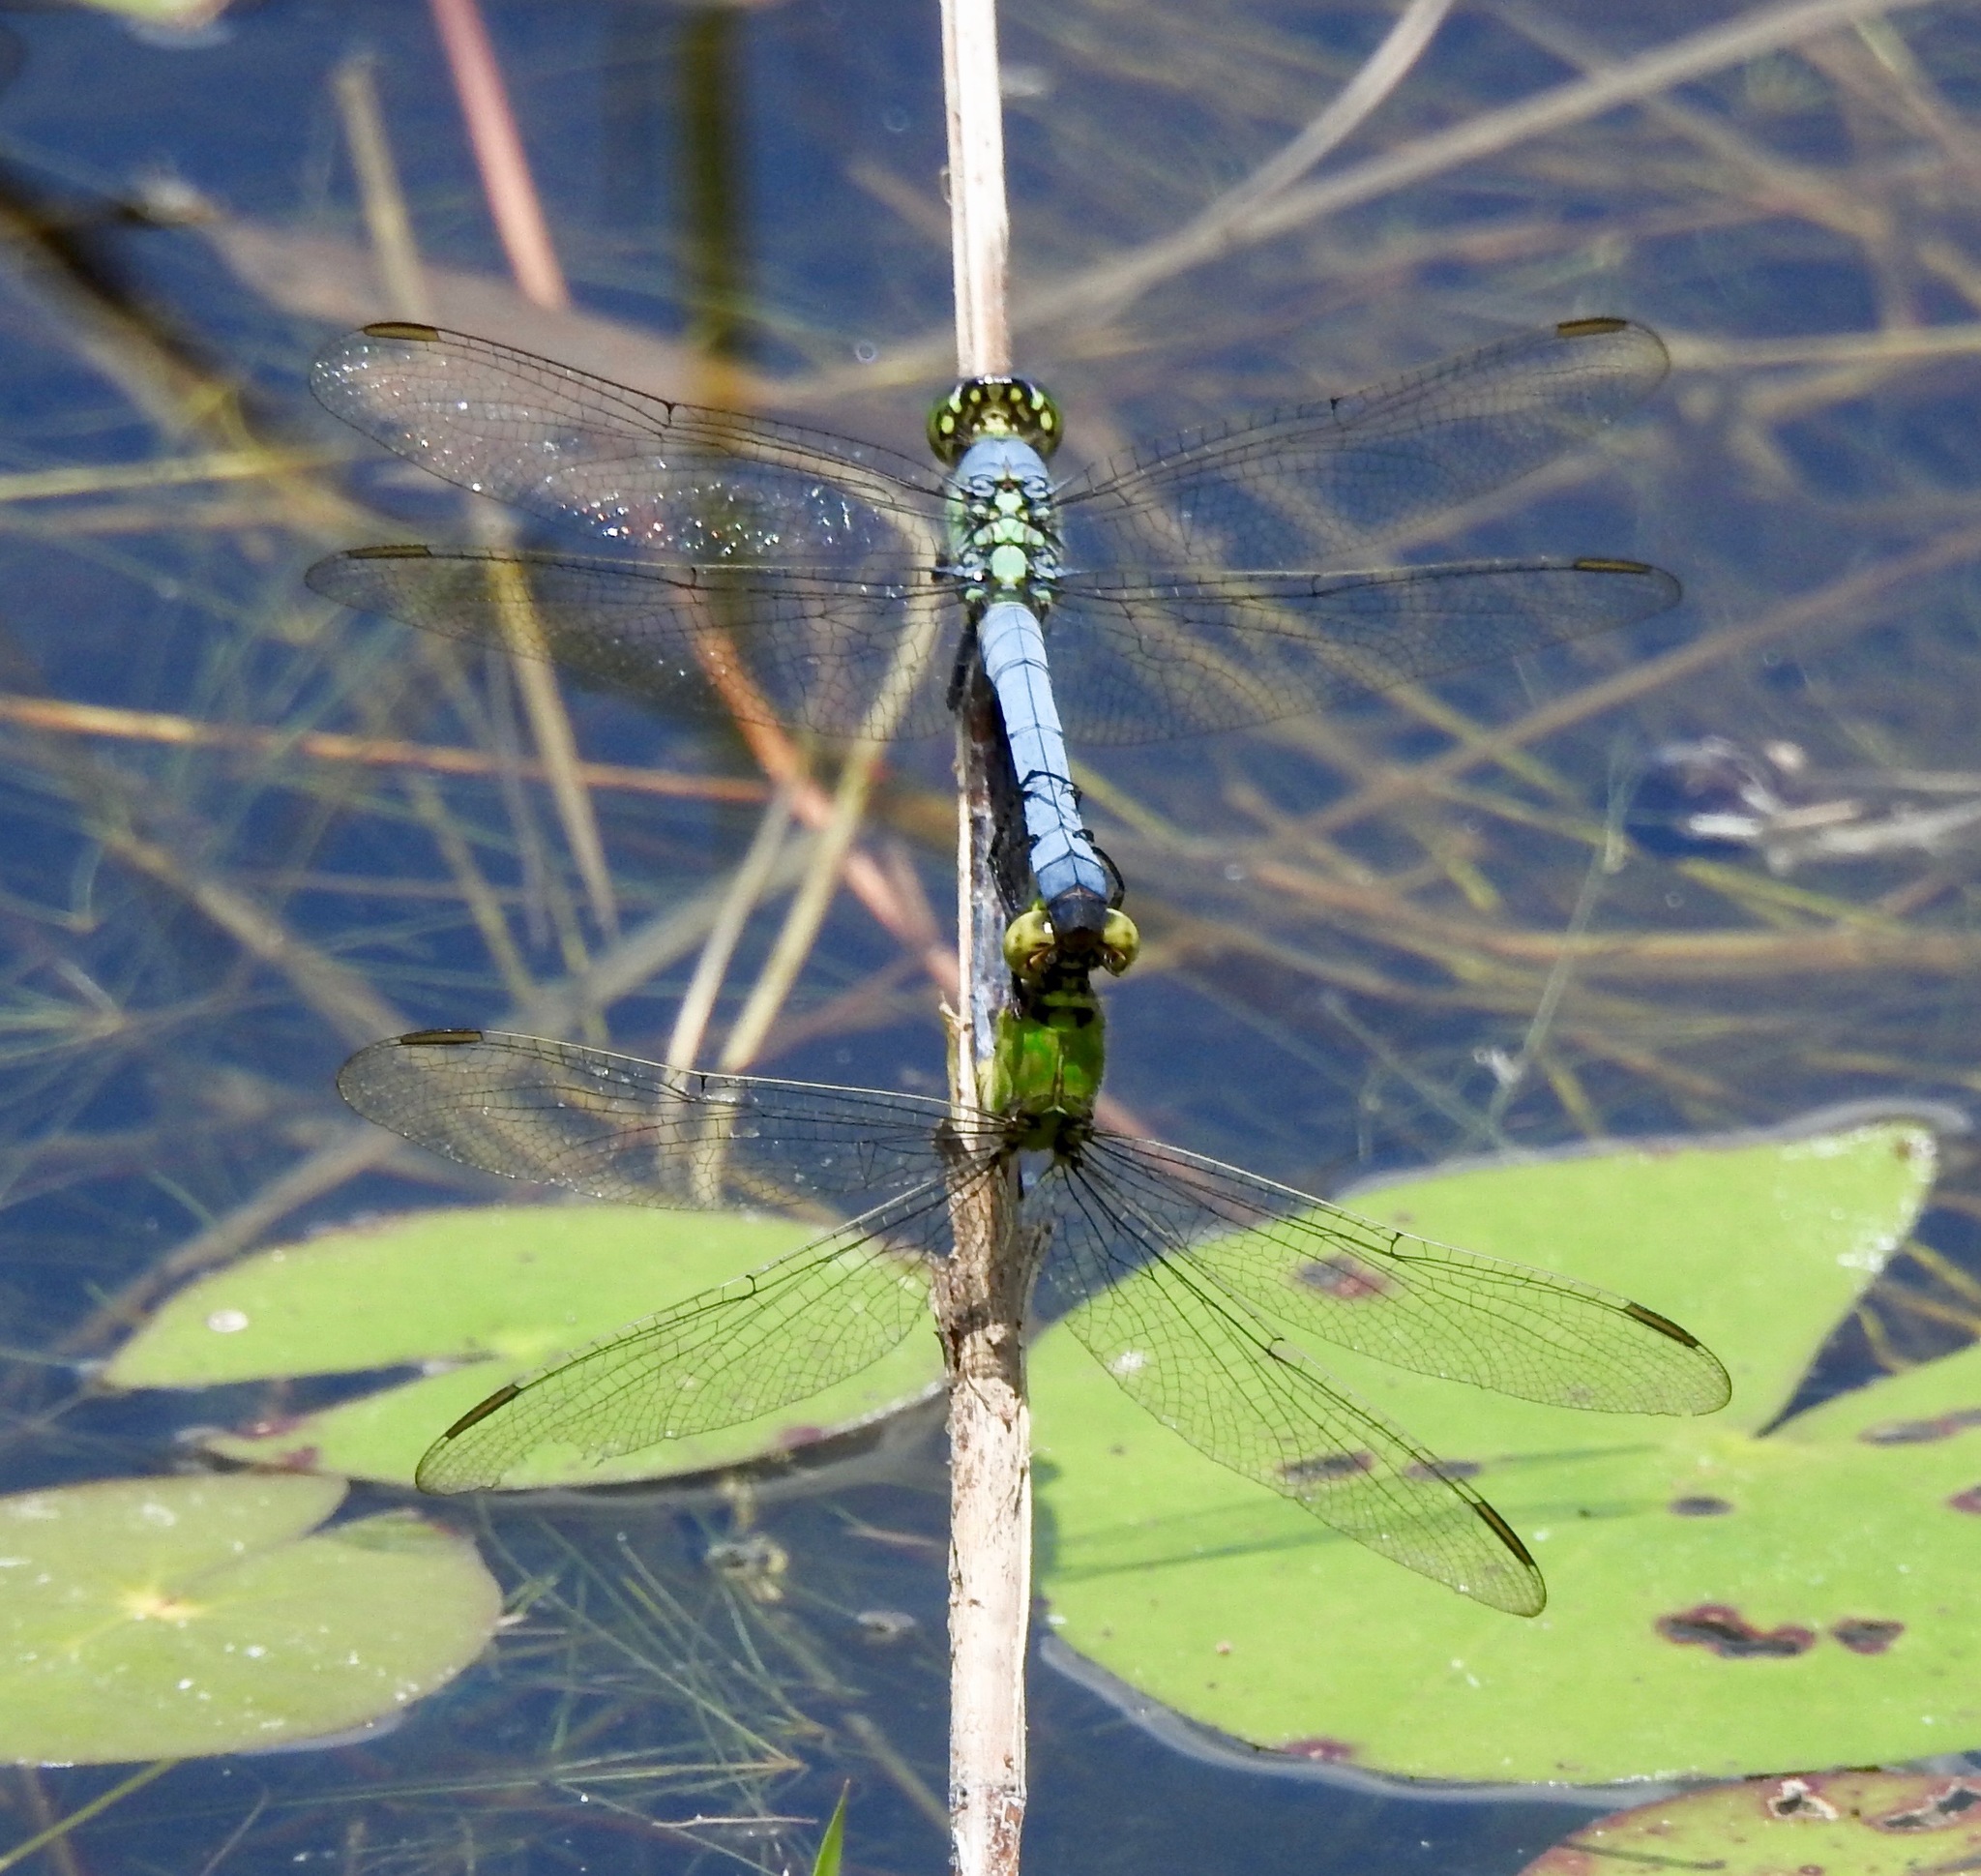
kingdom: Animalia
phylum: Arthropoda
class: Insecta
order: Odonata
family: Libellulidae
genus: Erythemis
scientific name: Erythemis simplicicollis
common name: Eastern pondhawk
